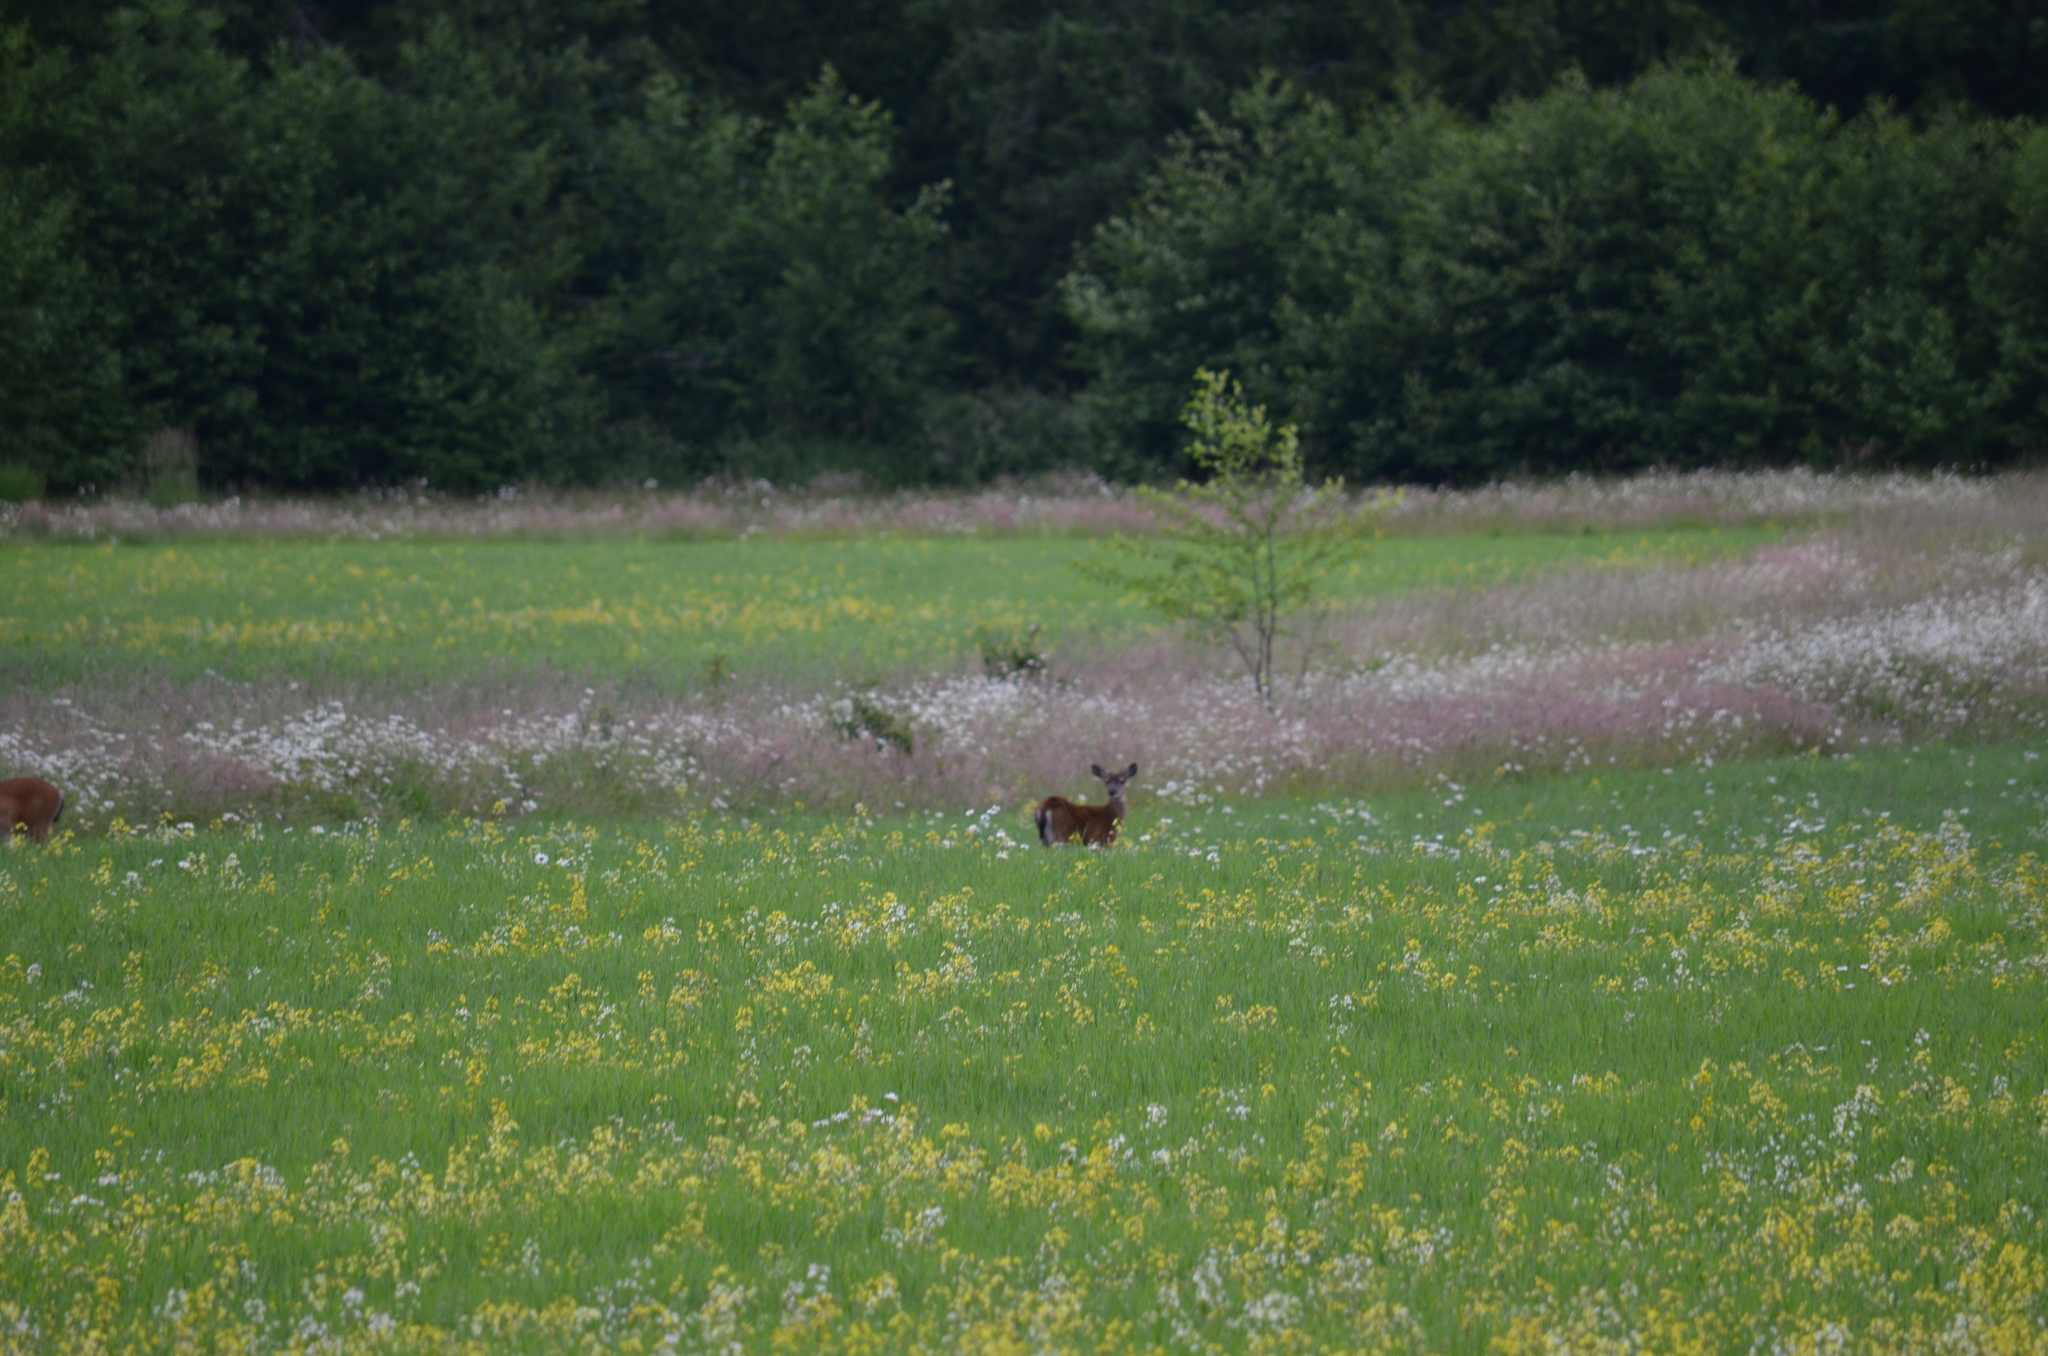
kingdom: Animalia
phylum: Chordata
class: Mammalia
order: Artiodactyla
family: Cervidae
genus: Odocoileus
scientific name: Odocoileus hemionus
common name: Mule deer
